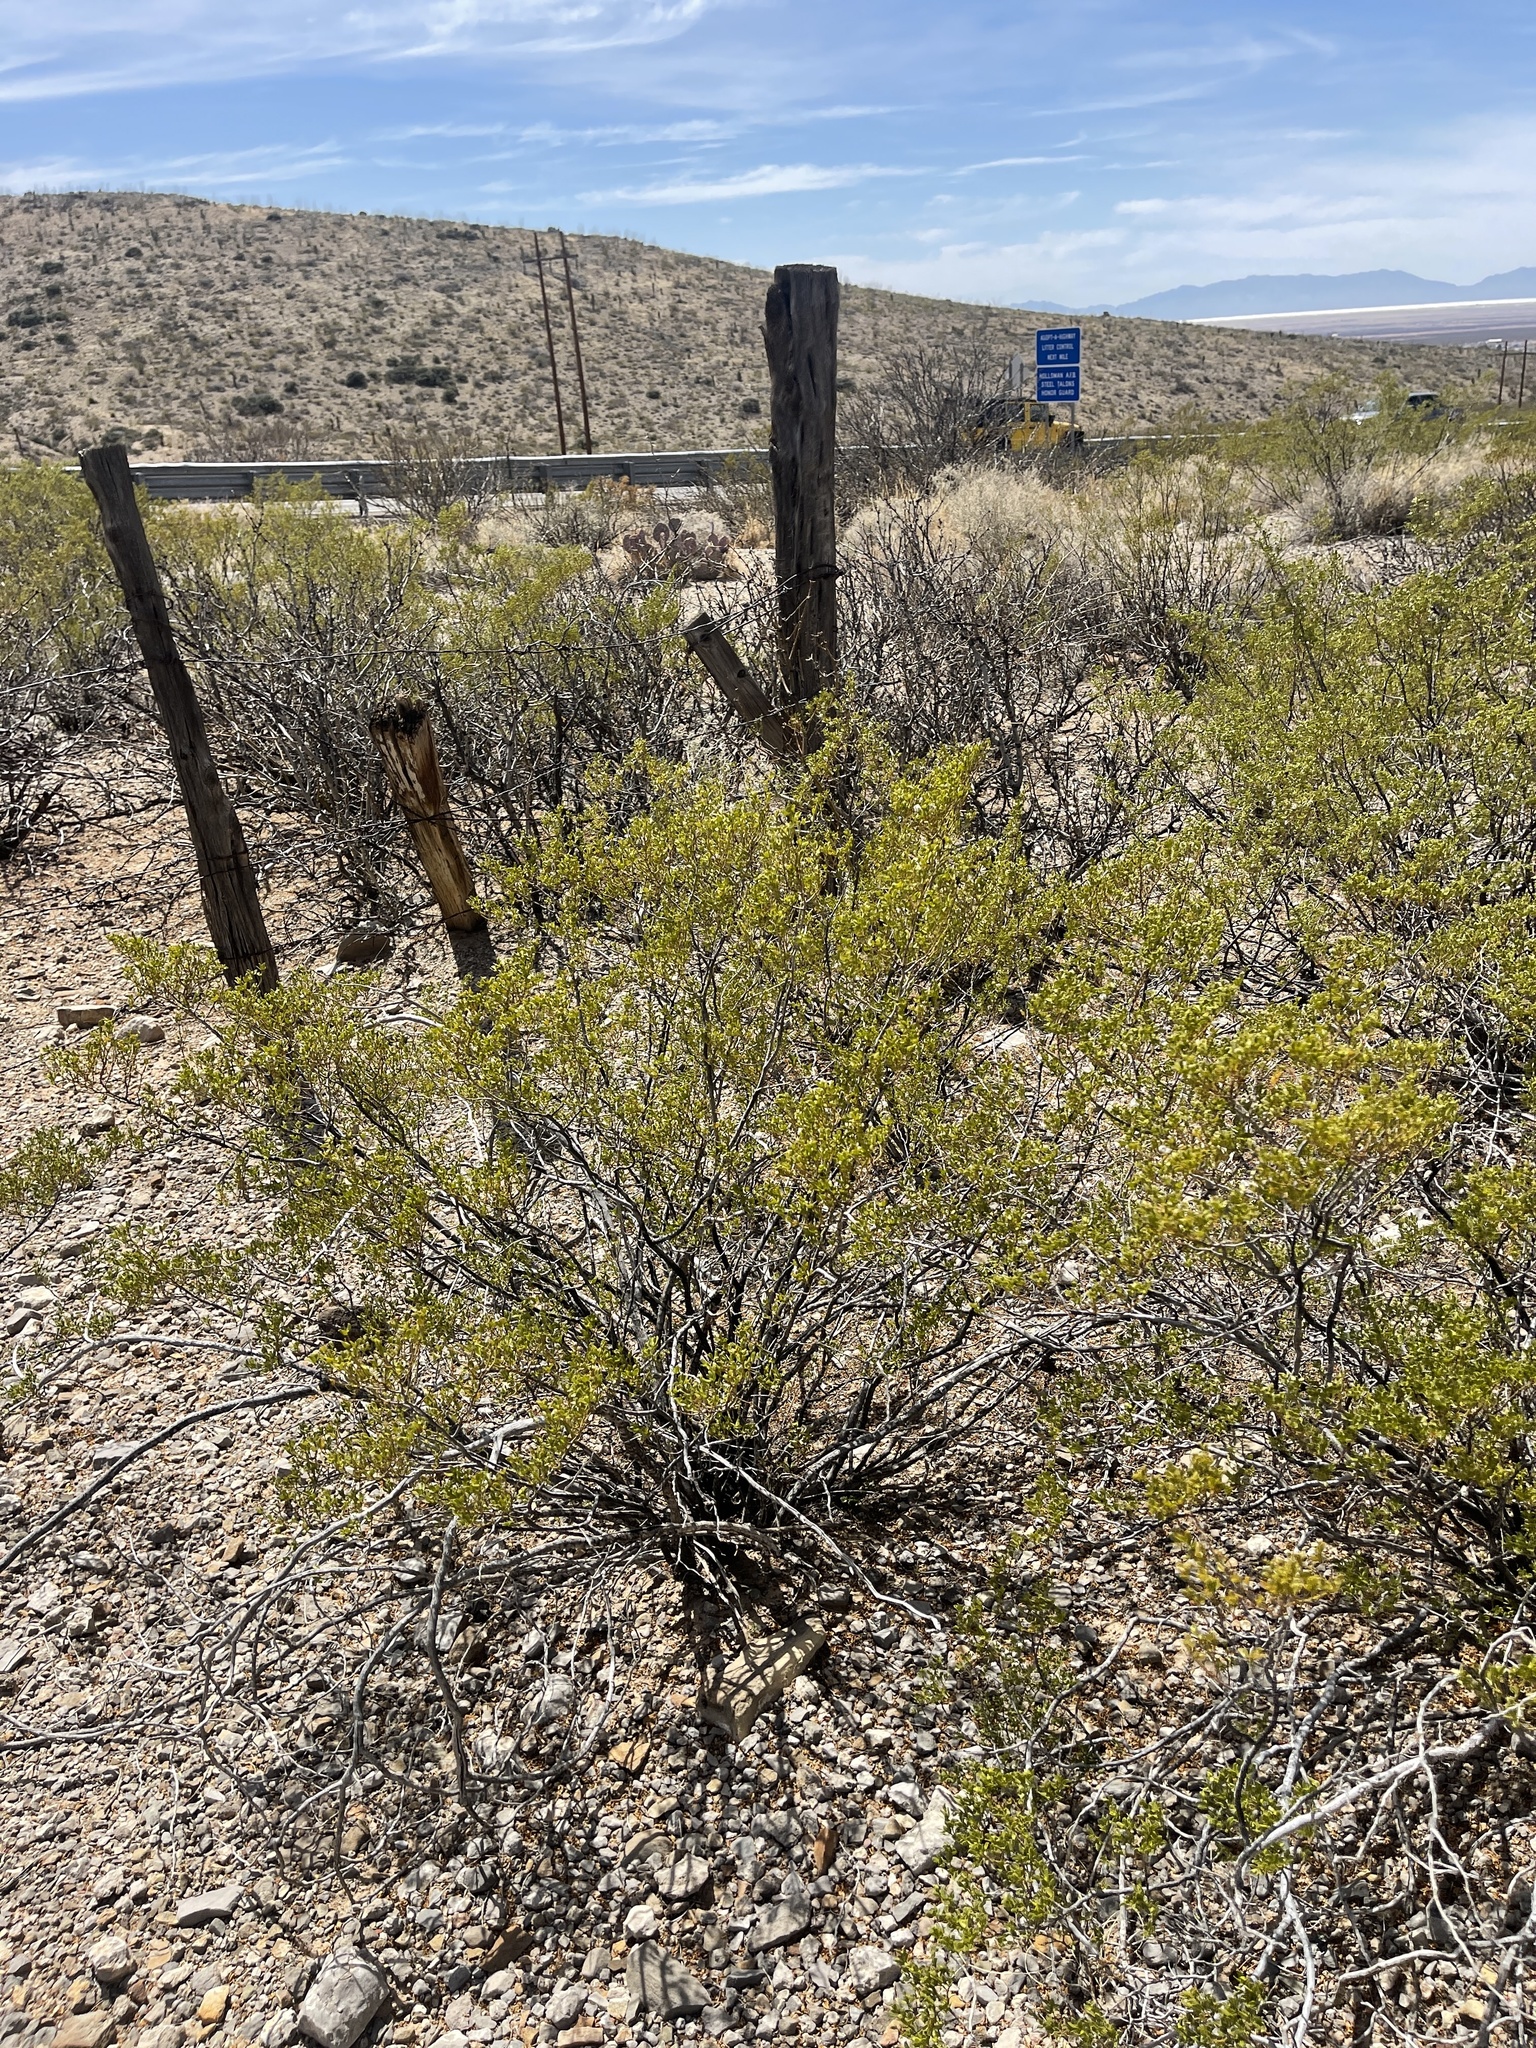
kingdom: Plantae
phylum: Tracheophyta
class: Magnoliopsida
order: Zygophyllales
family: Zygophyllaceae
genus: Larrea
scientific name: Larrea tridentata
